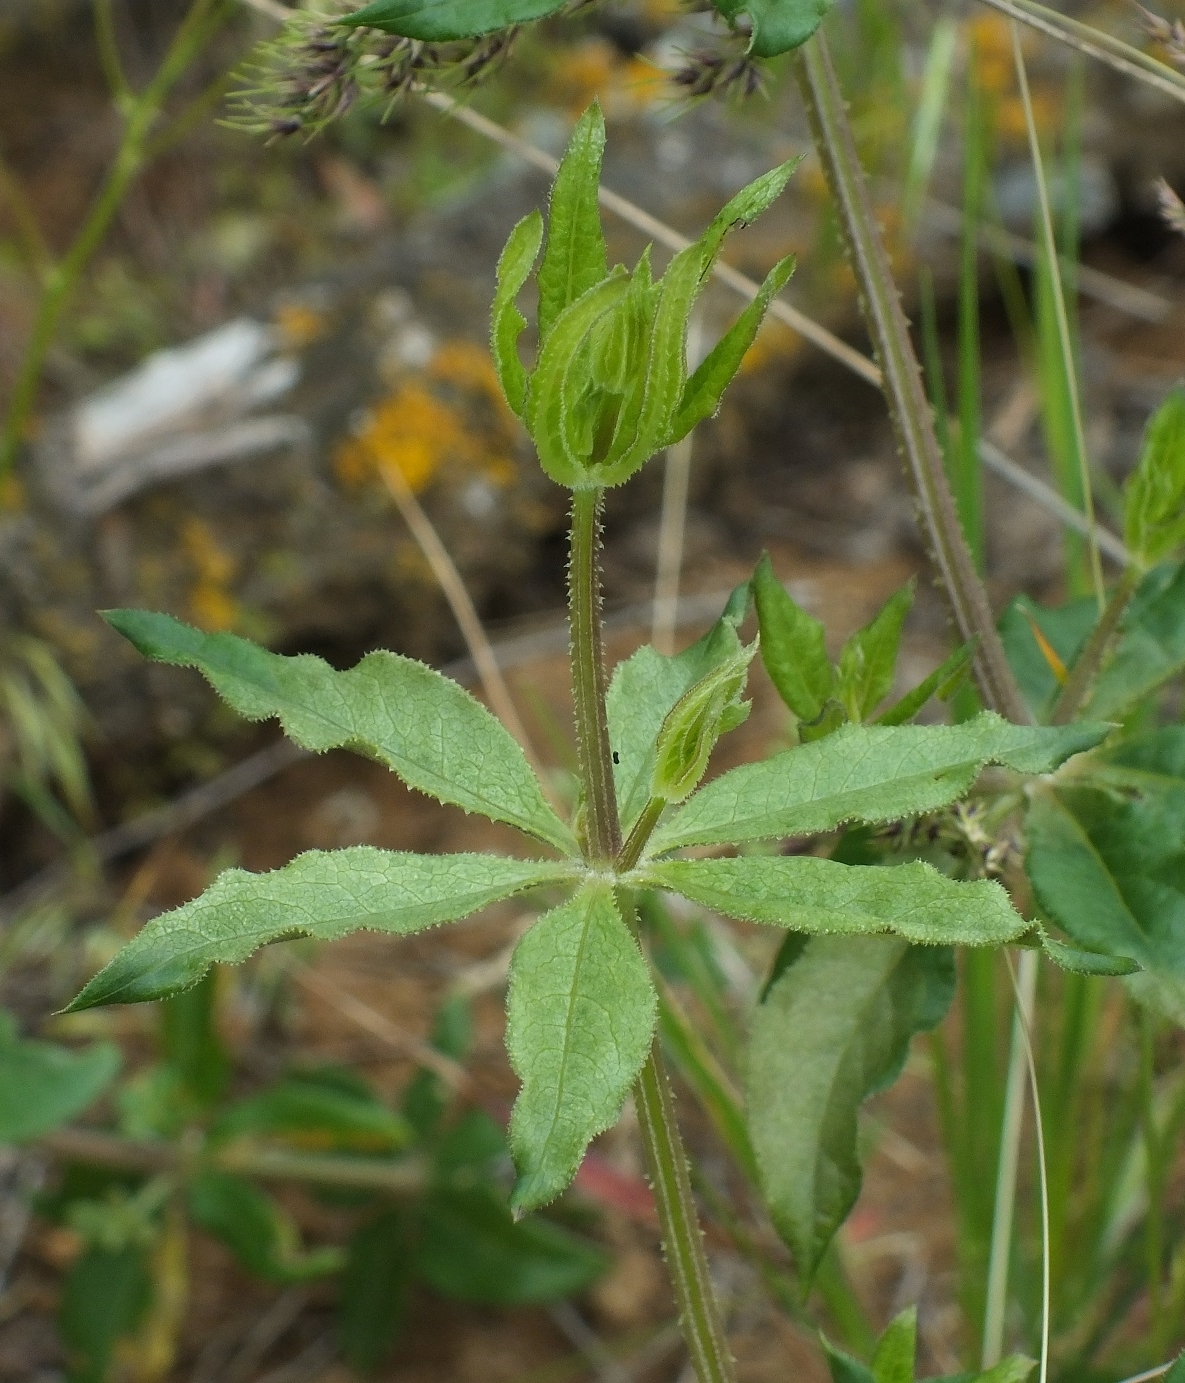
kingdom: Plantae
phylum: Tracheophyta
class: Magnoliopsida
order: Gentianales
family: Rubiaceae
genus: Rubia
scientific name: Rubia tinctorum
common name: Dyer's madder
